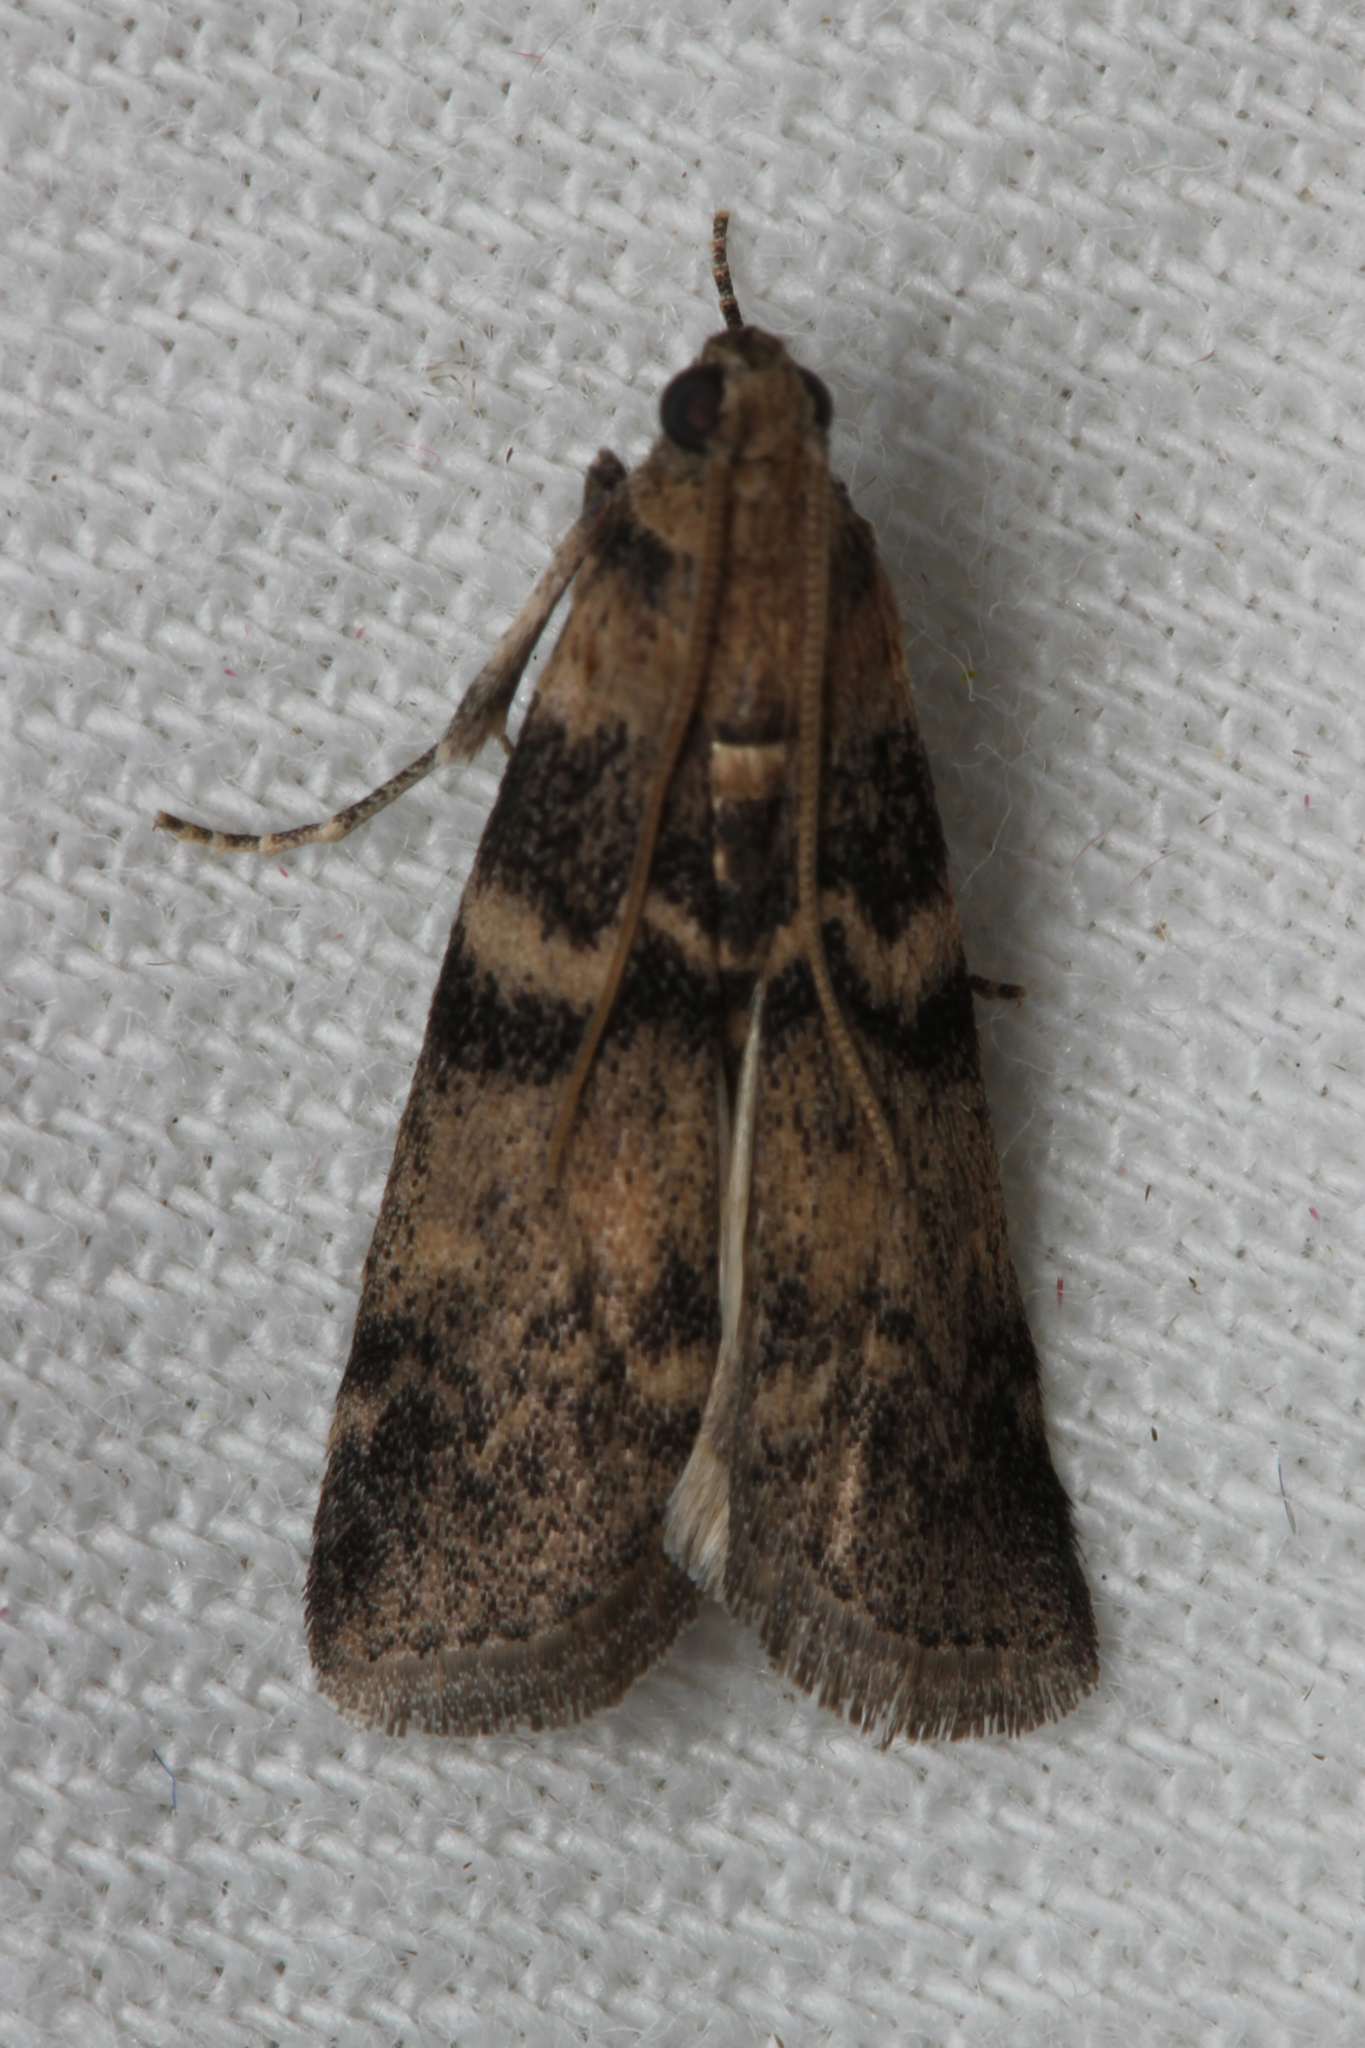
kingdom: Animalia
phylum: Arthropoda
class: Insecta
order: Lepidoptera
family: Pyralidae
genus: Euzophera
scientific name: Euzophera pinguis
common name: Ash-bark knot-horn
